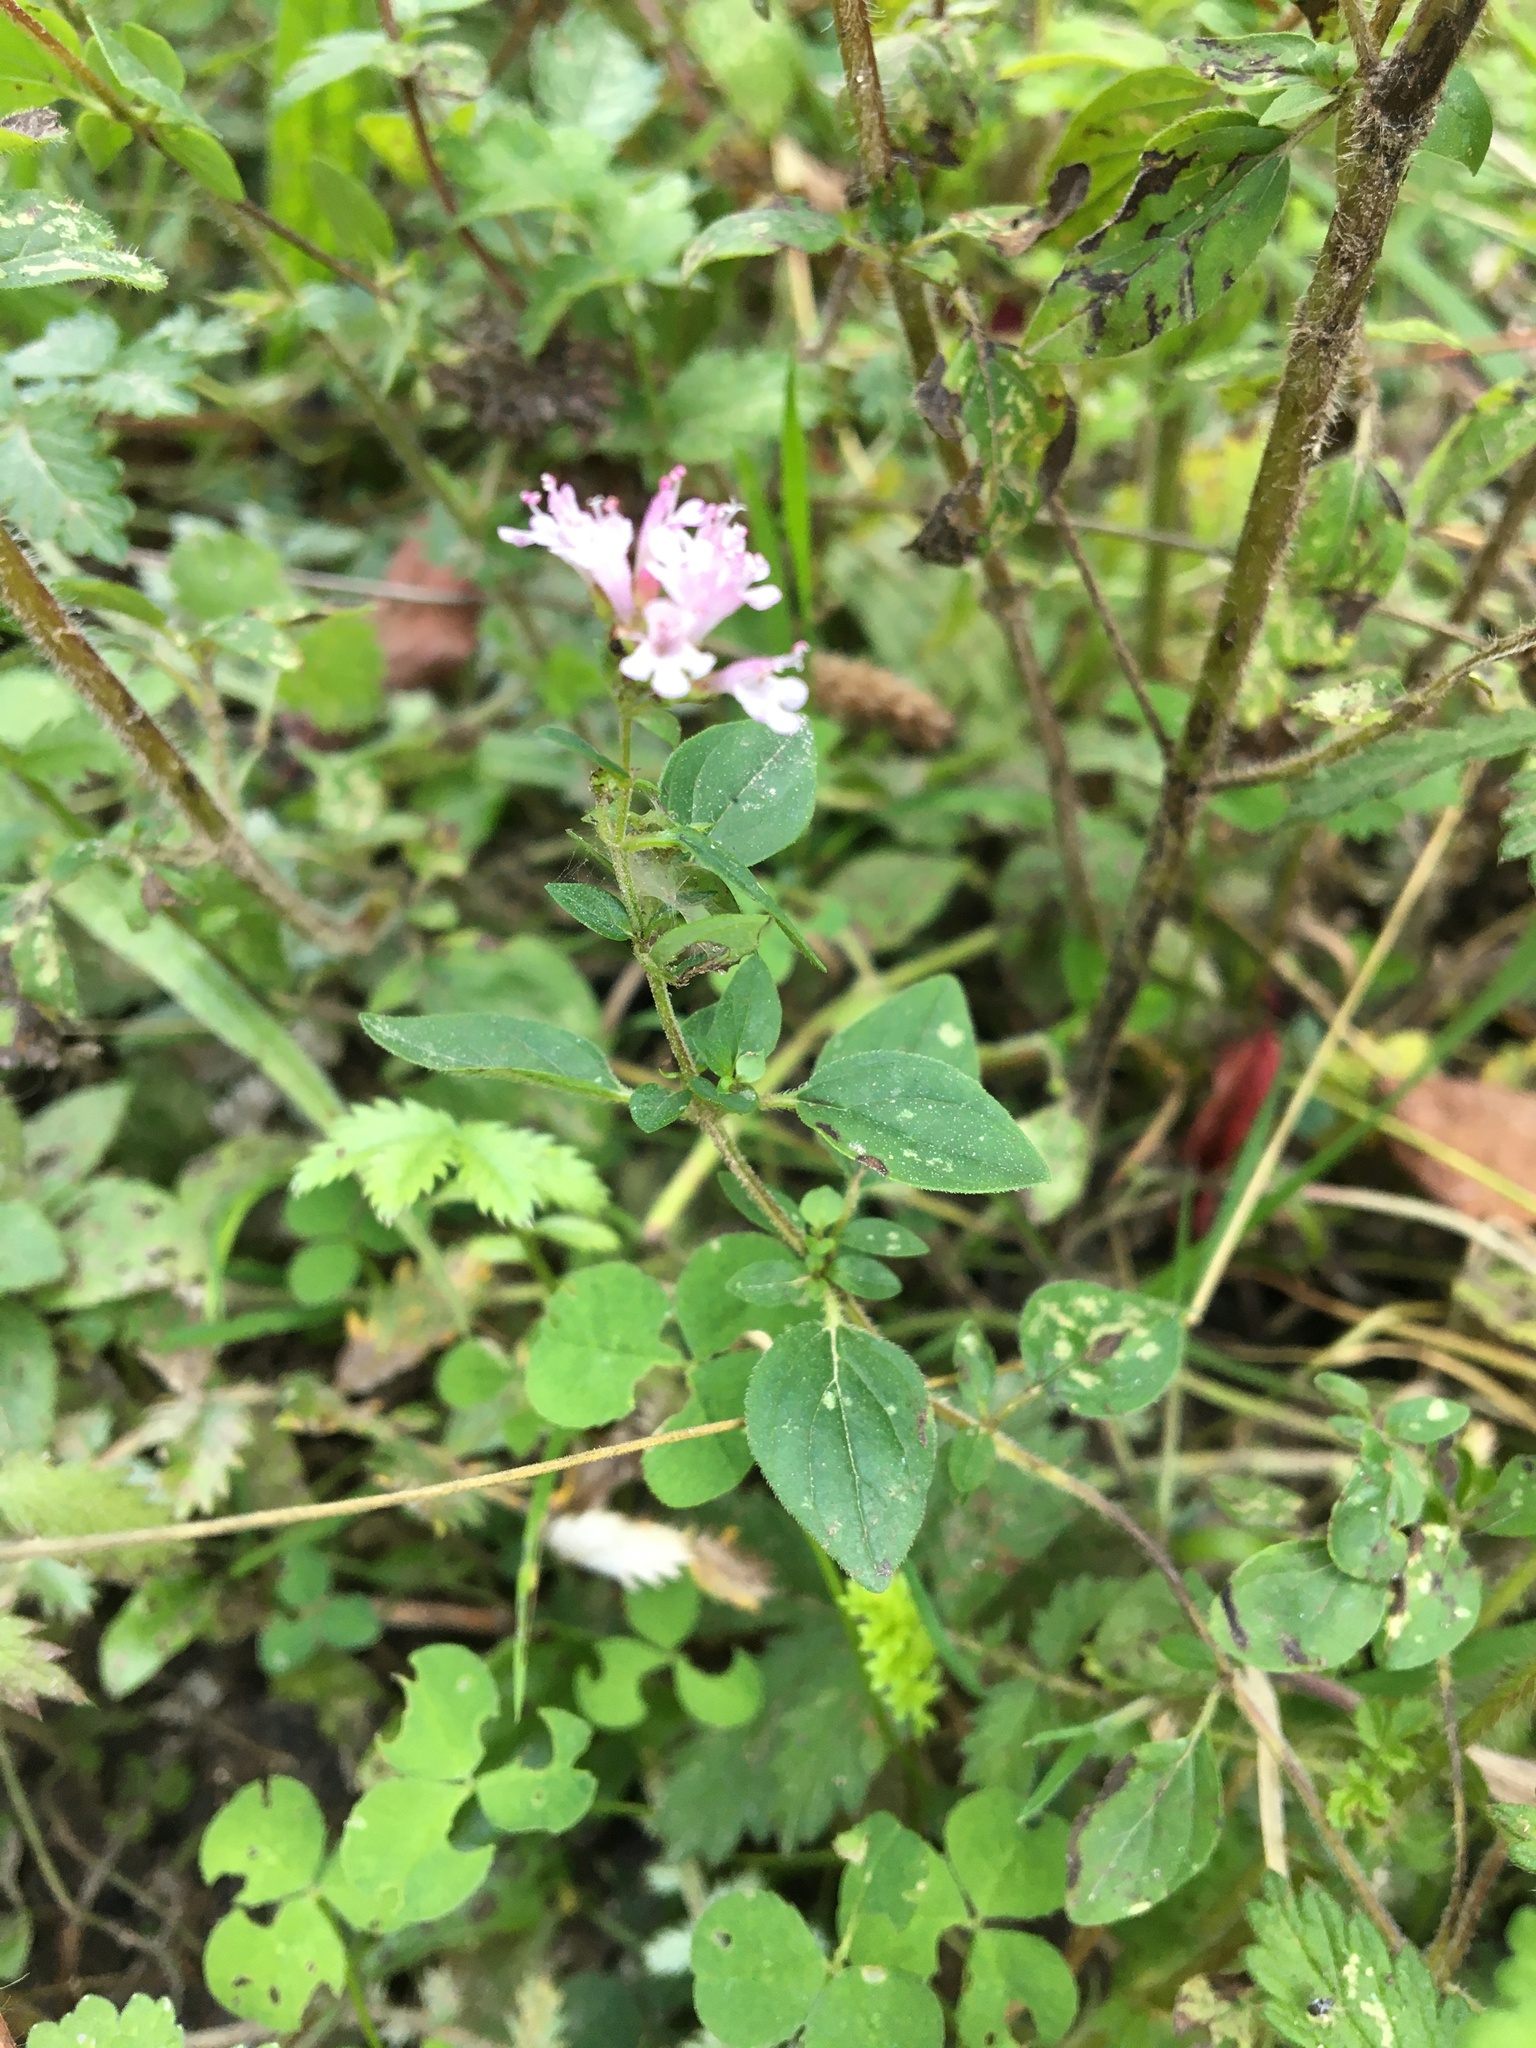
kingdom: Plantae
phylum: Tracheophyta
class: Magnoliopsida
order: Lamiales
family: Lamiaceae
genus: Origanum
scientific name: Origanum vulgare
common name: Wild marjoram
